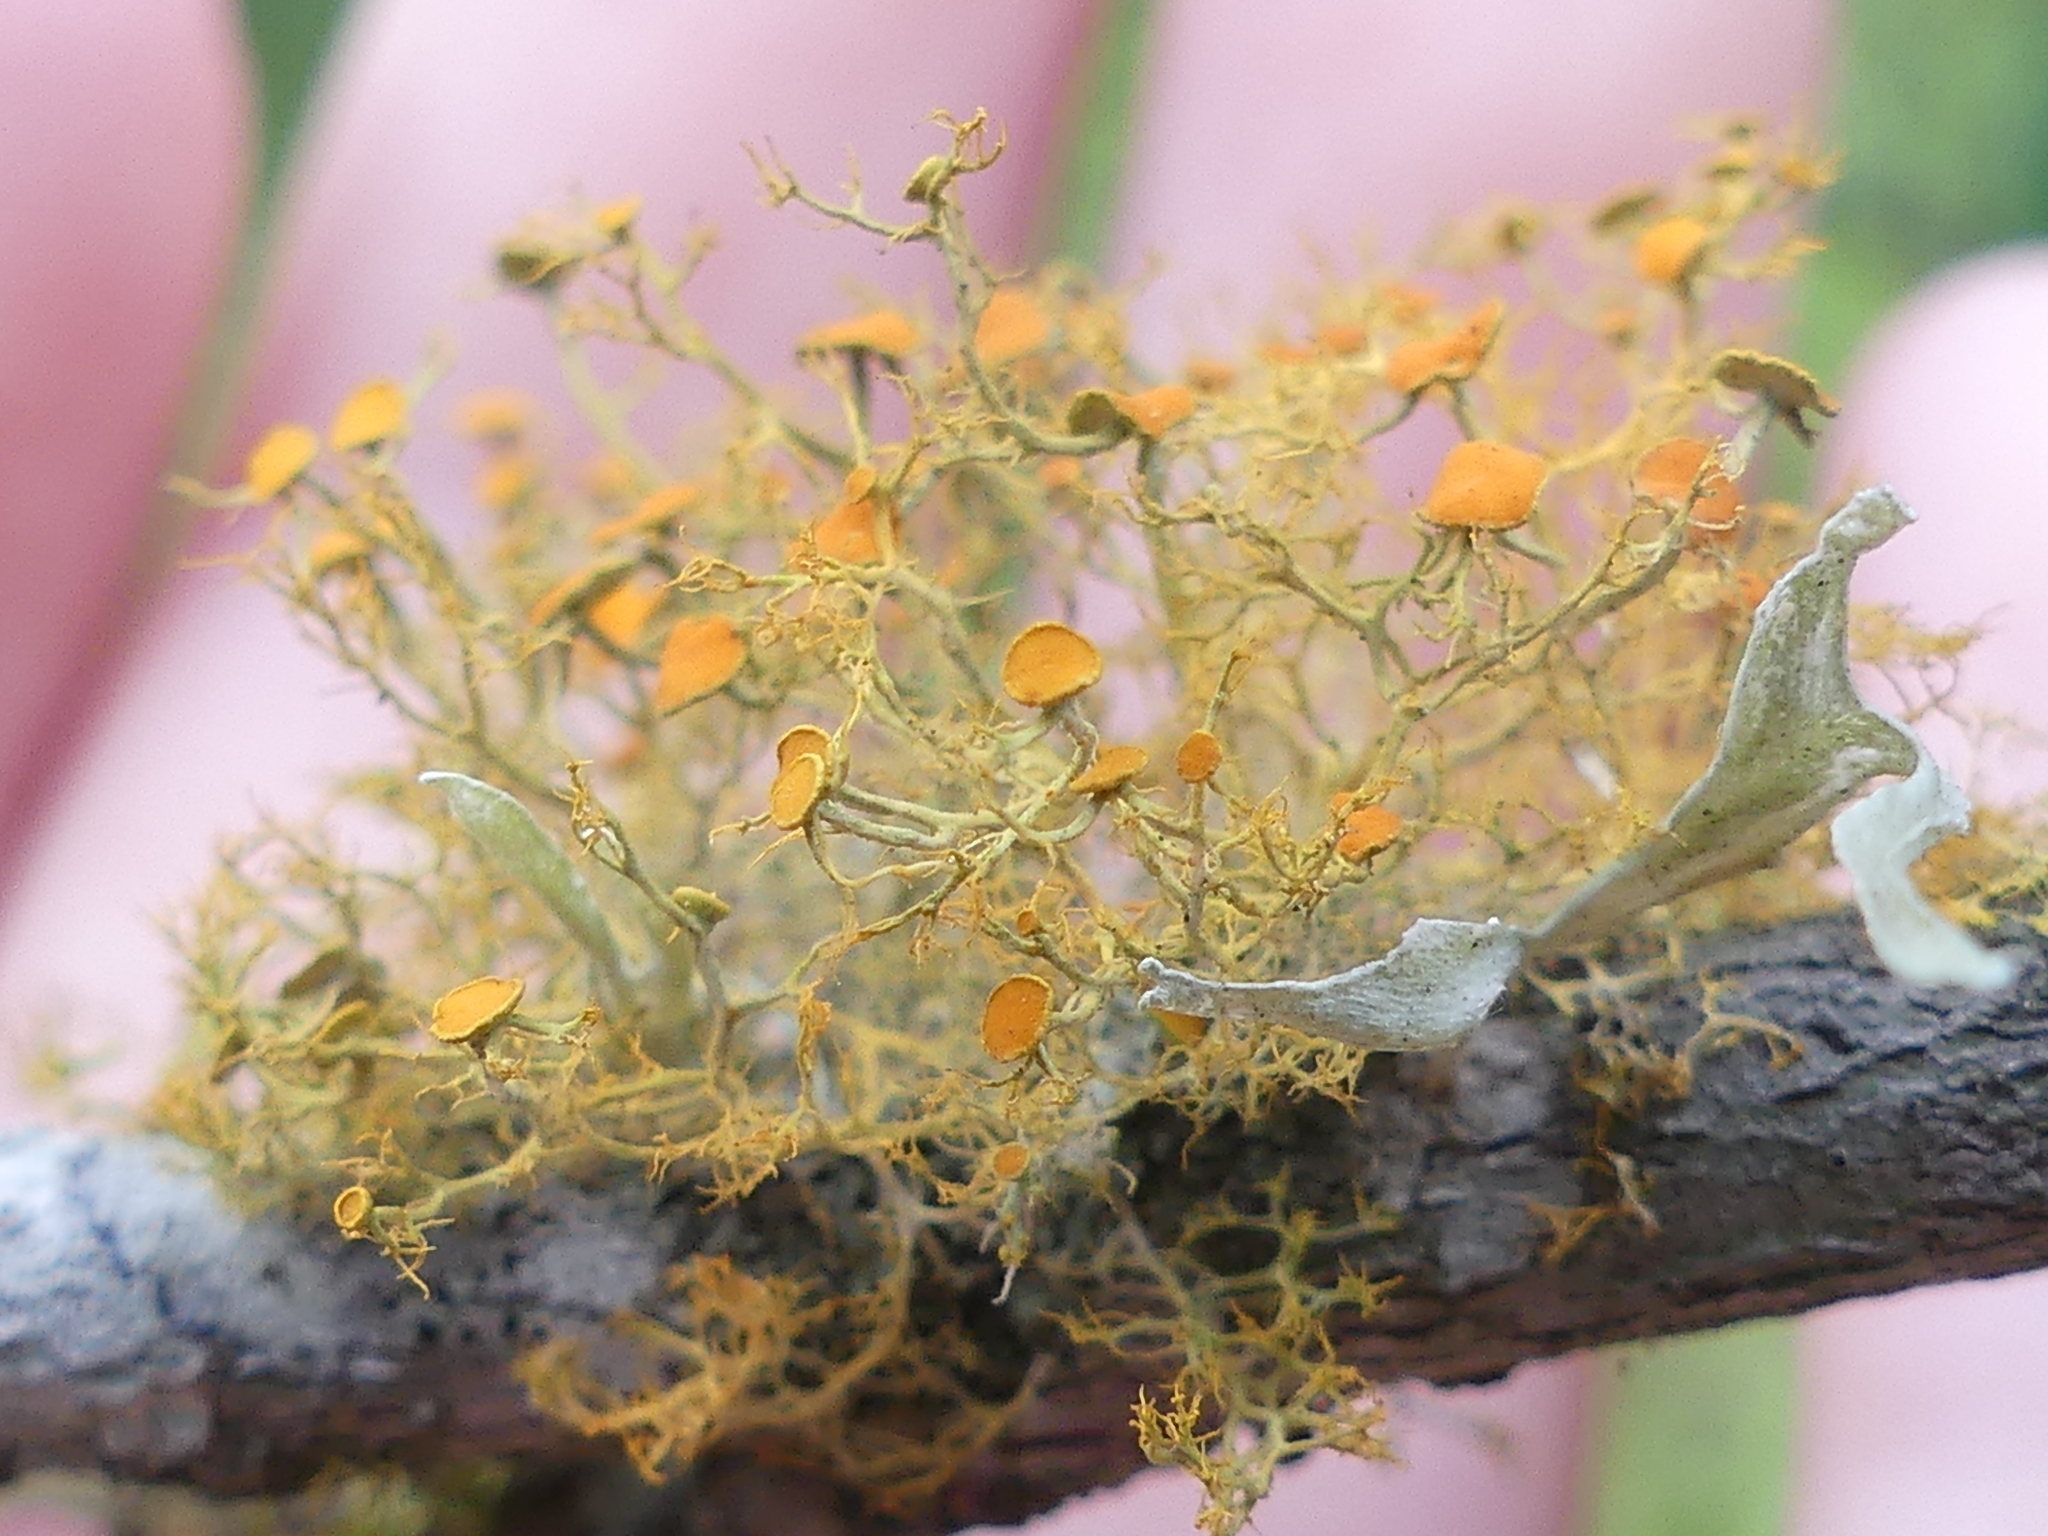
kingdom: Fungi
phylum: Ascomycota
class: Lecanoromycetes
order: Teloschistales
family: Teloschistaceae
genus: Teloschistes
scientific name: Teloschistes exilis
